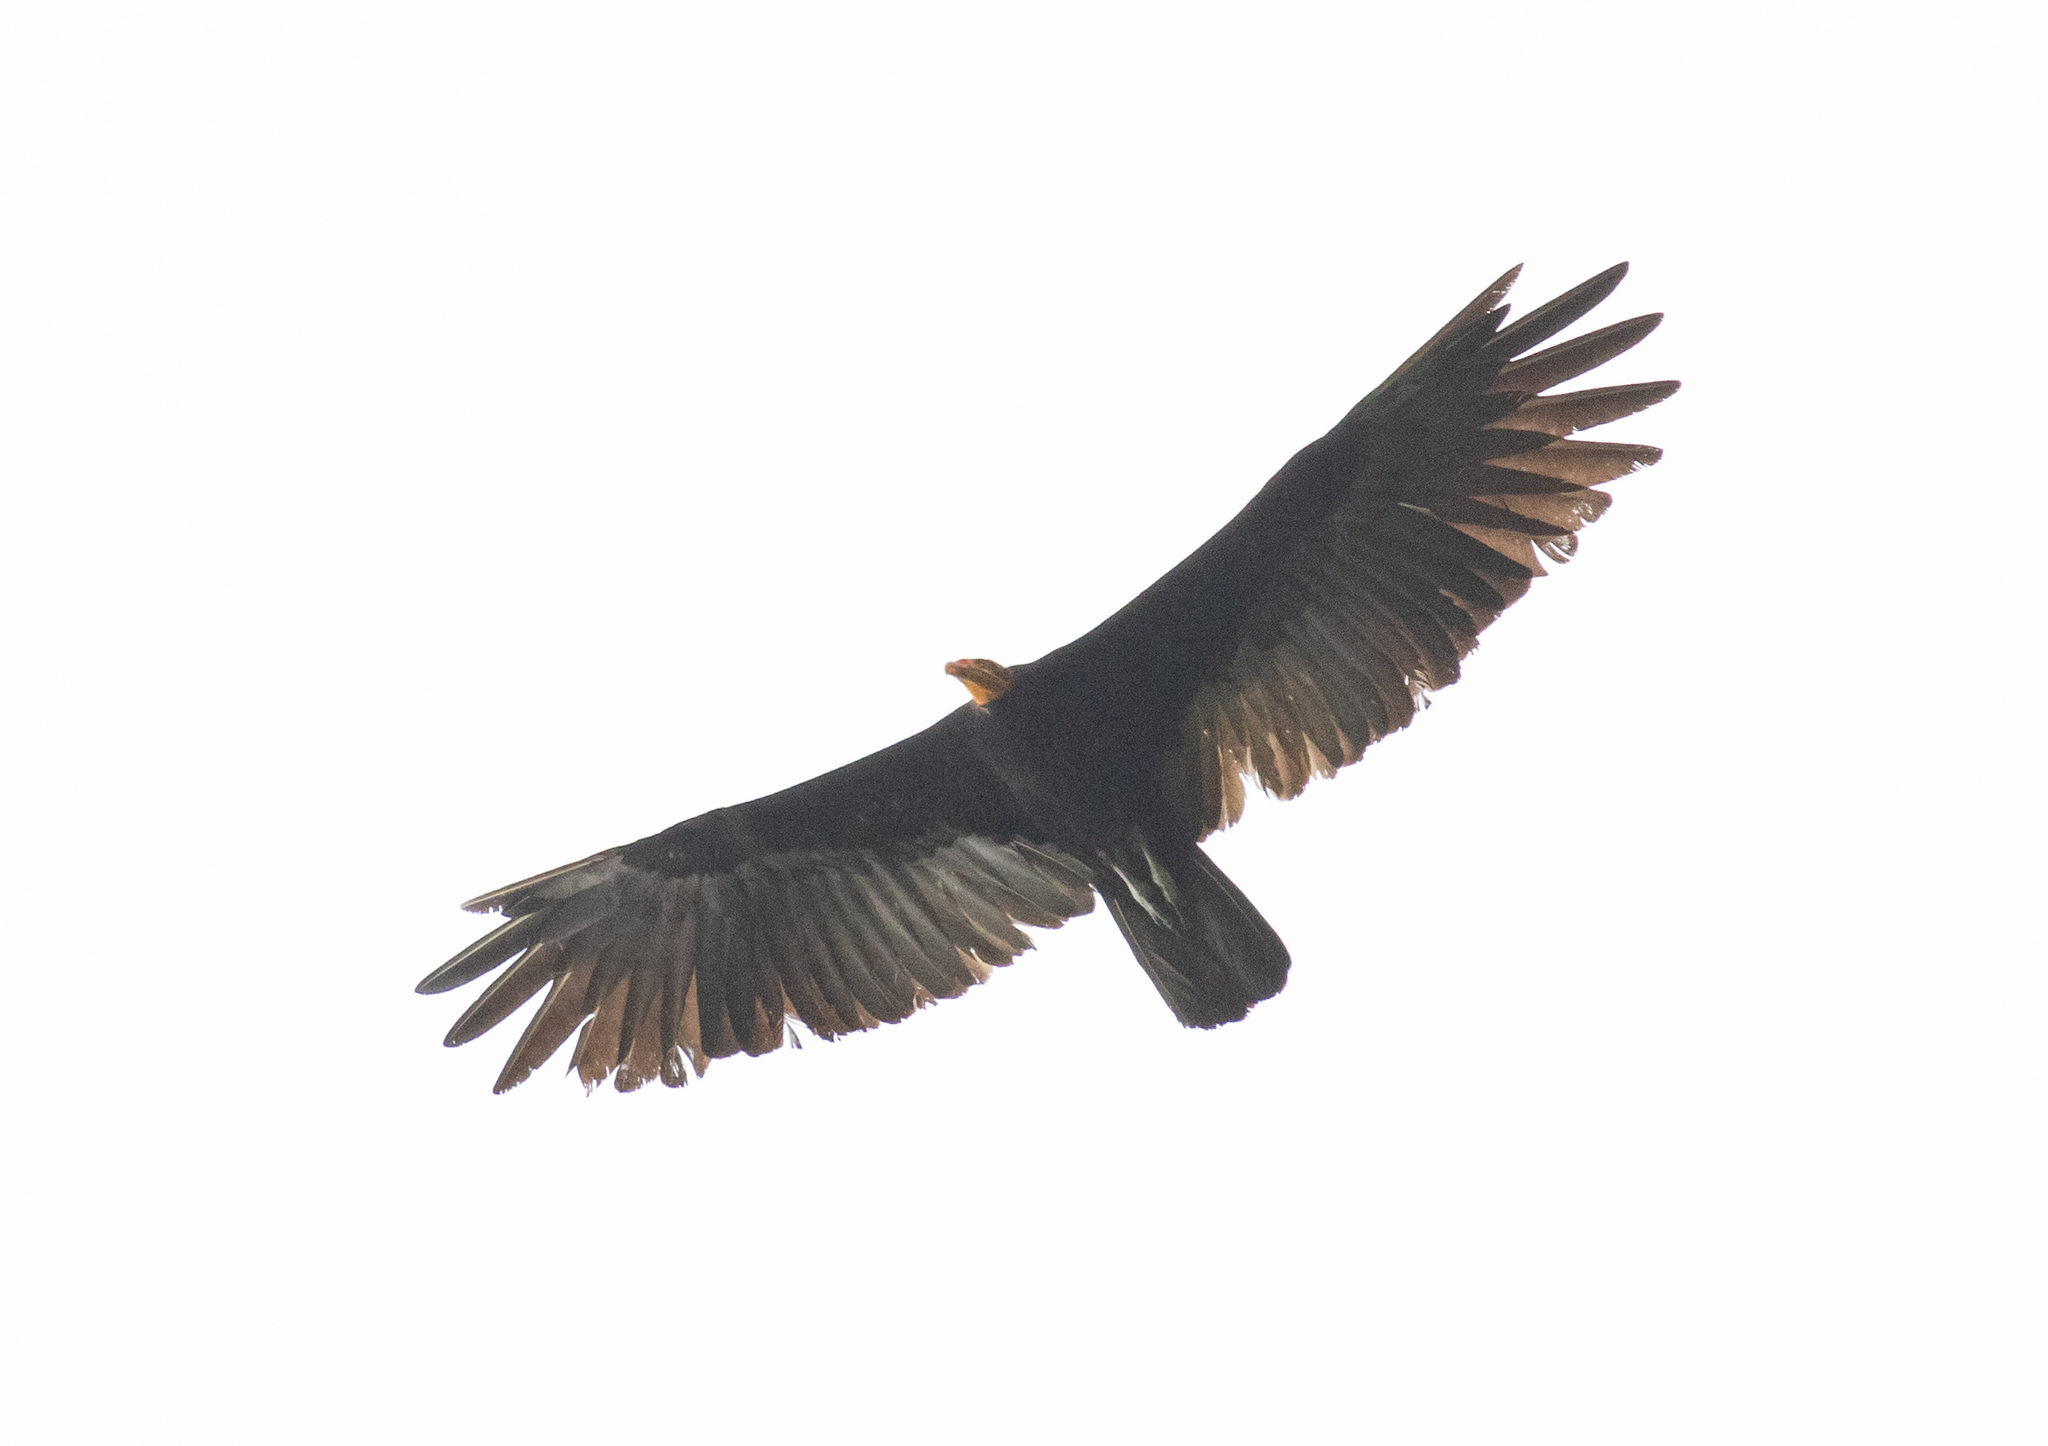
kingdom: Animalia
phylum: Chordata
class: Aves
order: Accipitriformes
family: Cathartidae
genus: Cathartes
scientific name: Cathartes melambrotus
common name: Greater yellow-headed vulture
